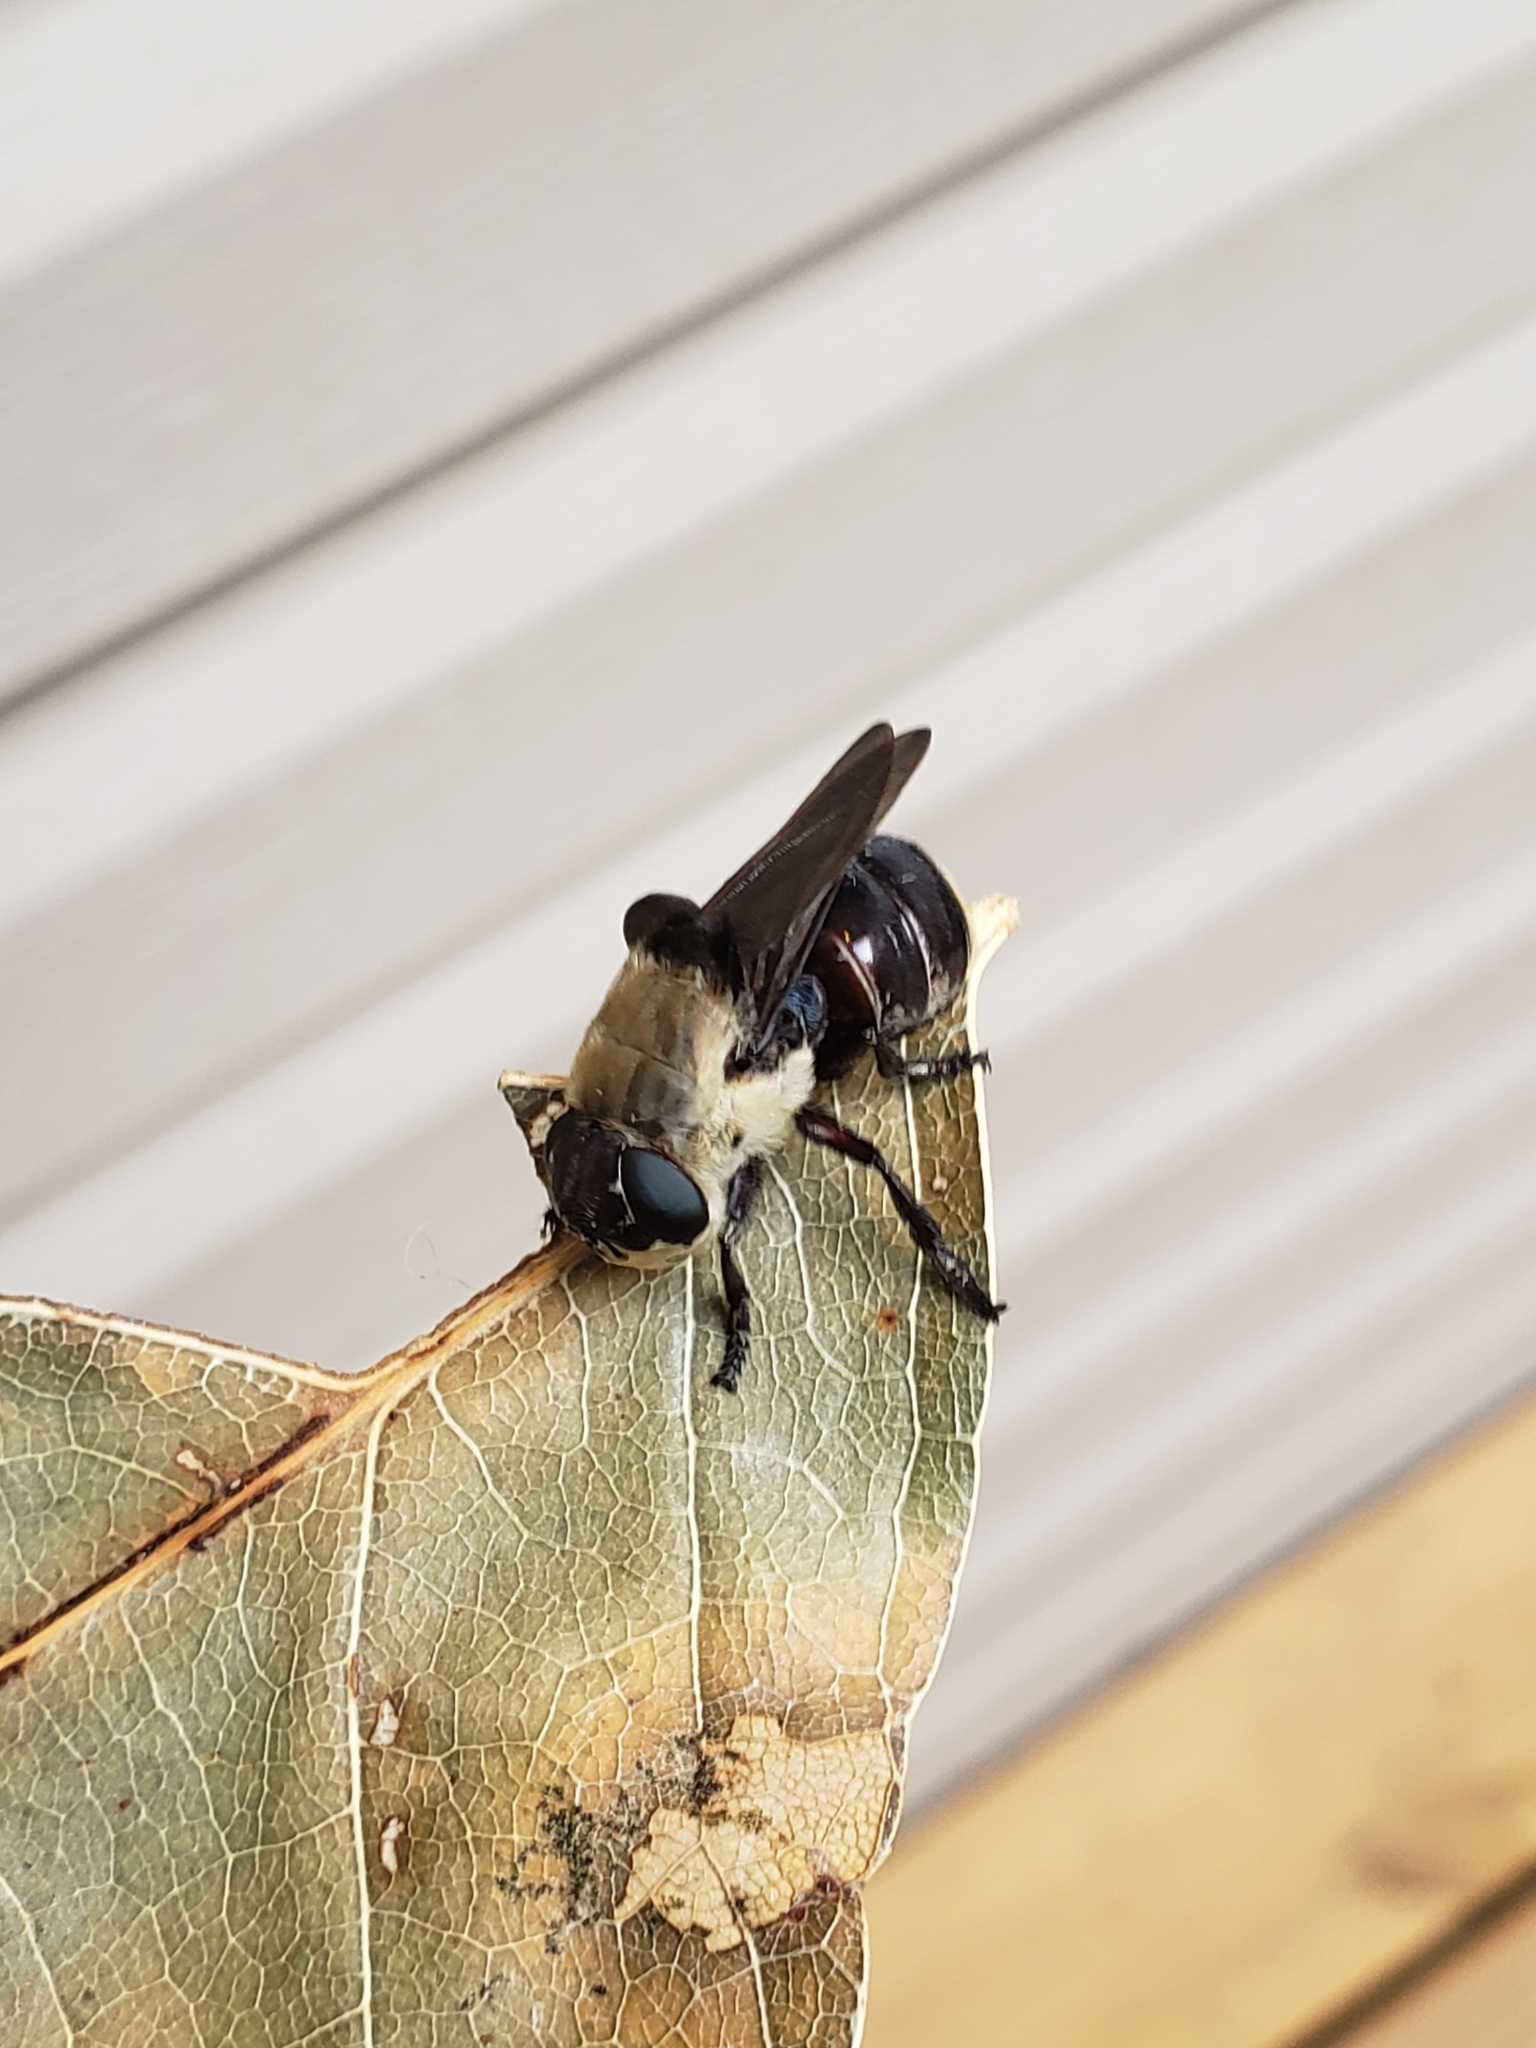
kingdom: Animalia
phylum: Arthropoda
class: Insecta
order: Diptera
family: Oestridae
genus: Cuterebra
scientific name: Cuterebra emasculator
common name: Squirrel bot fly
